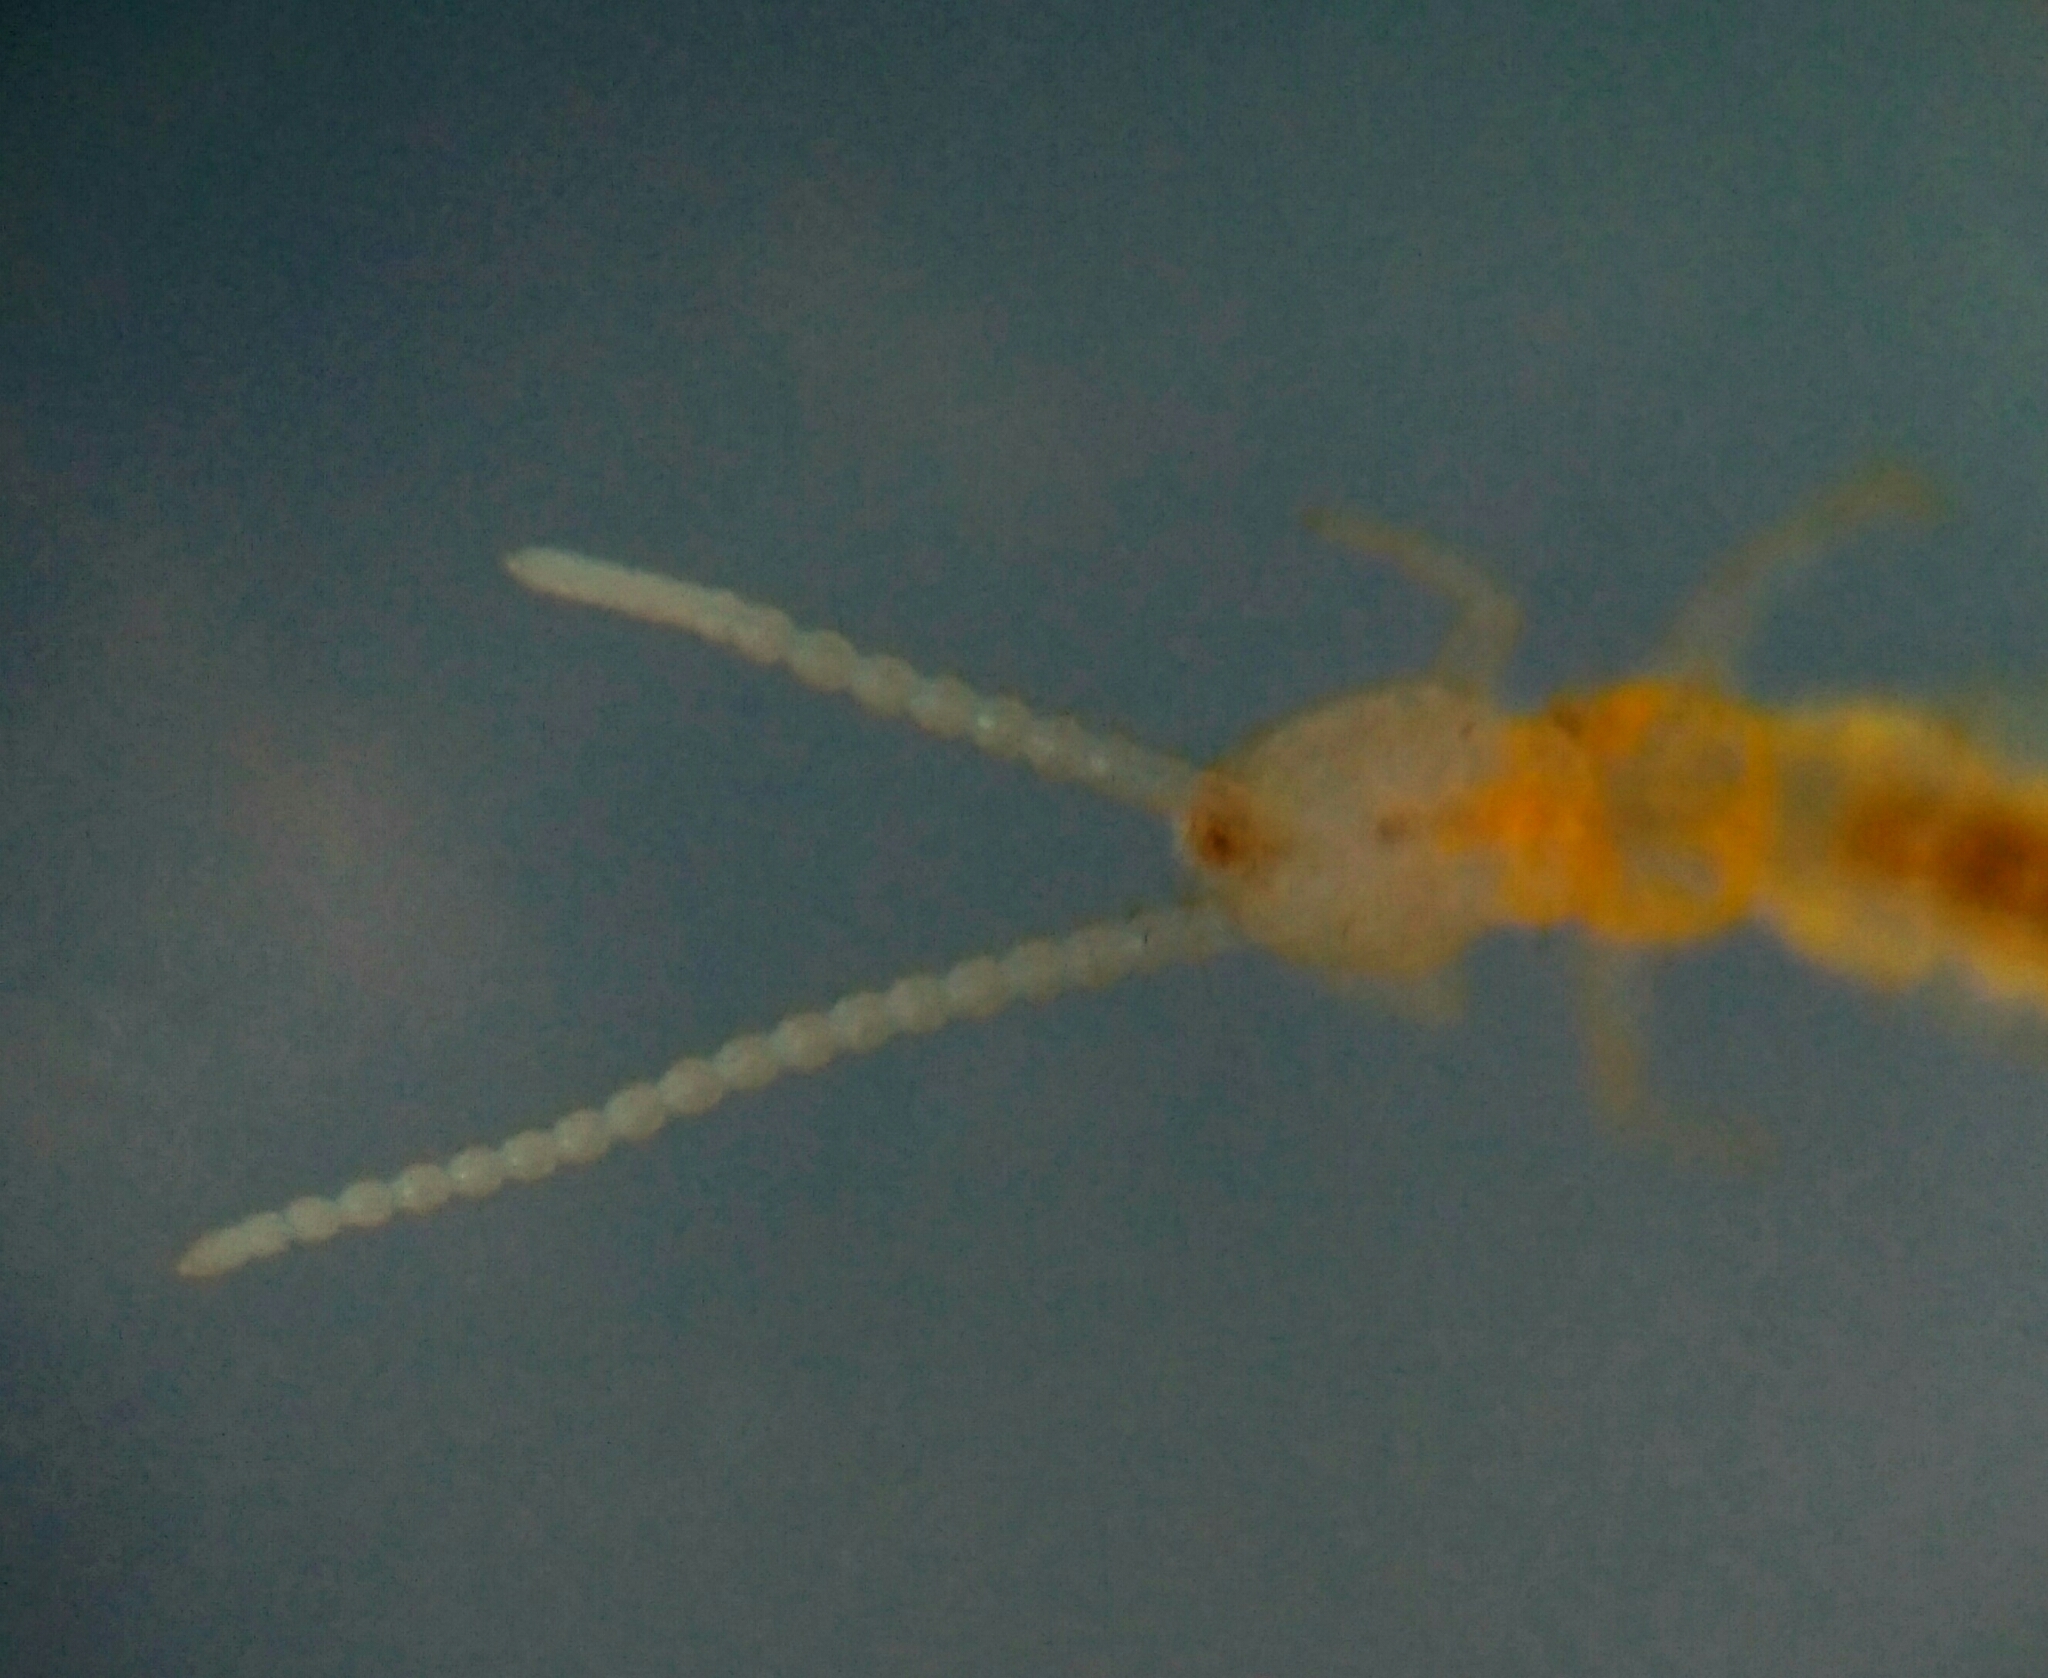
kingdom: Animalia
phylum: Arthropoda
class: Diplura
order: Diplura
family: Campodeidae
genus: Campodea
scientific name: Campodea
